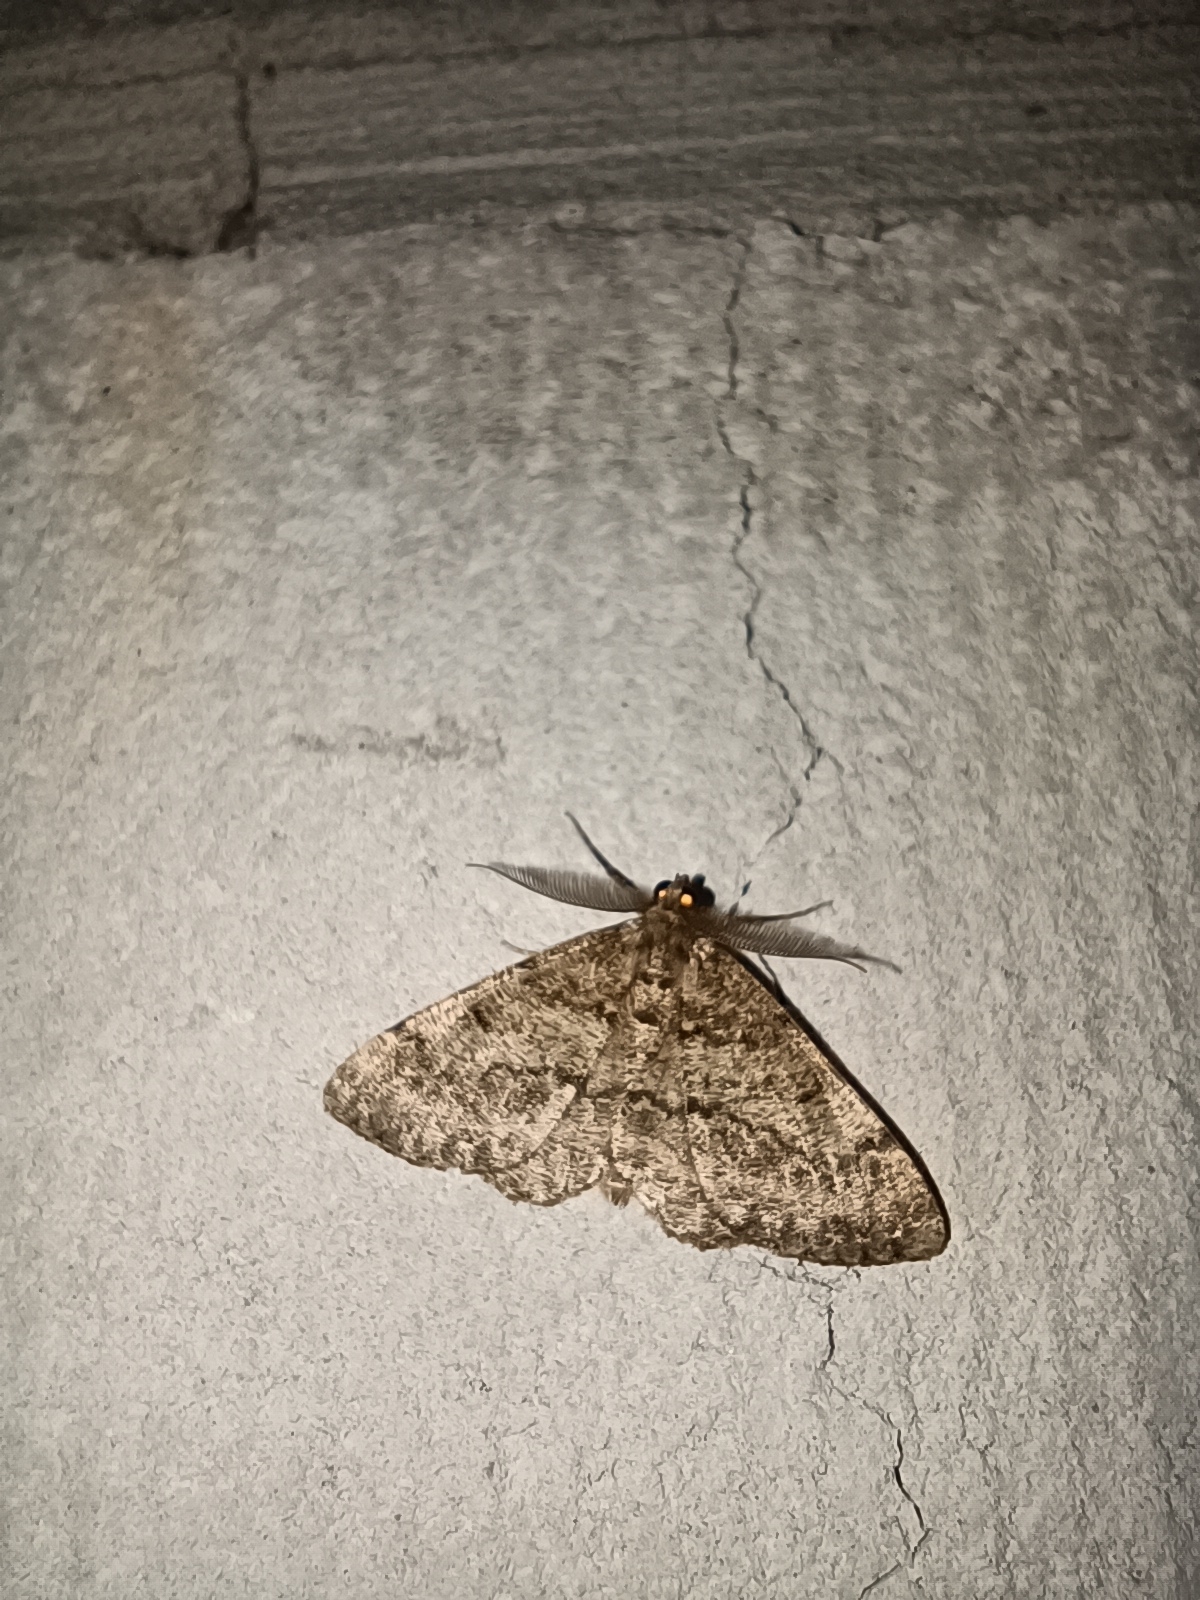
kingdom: Animalia
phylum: Arthropoda
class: Insecta
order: Lepidoptera
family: Geometridae
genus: Deileptenia
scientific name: Deileptenia ribeata
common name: Satin beauty
